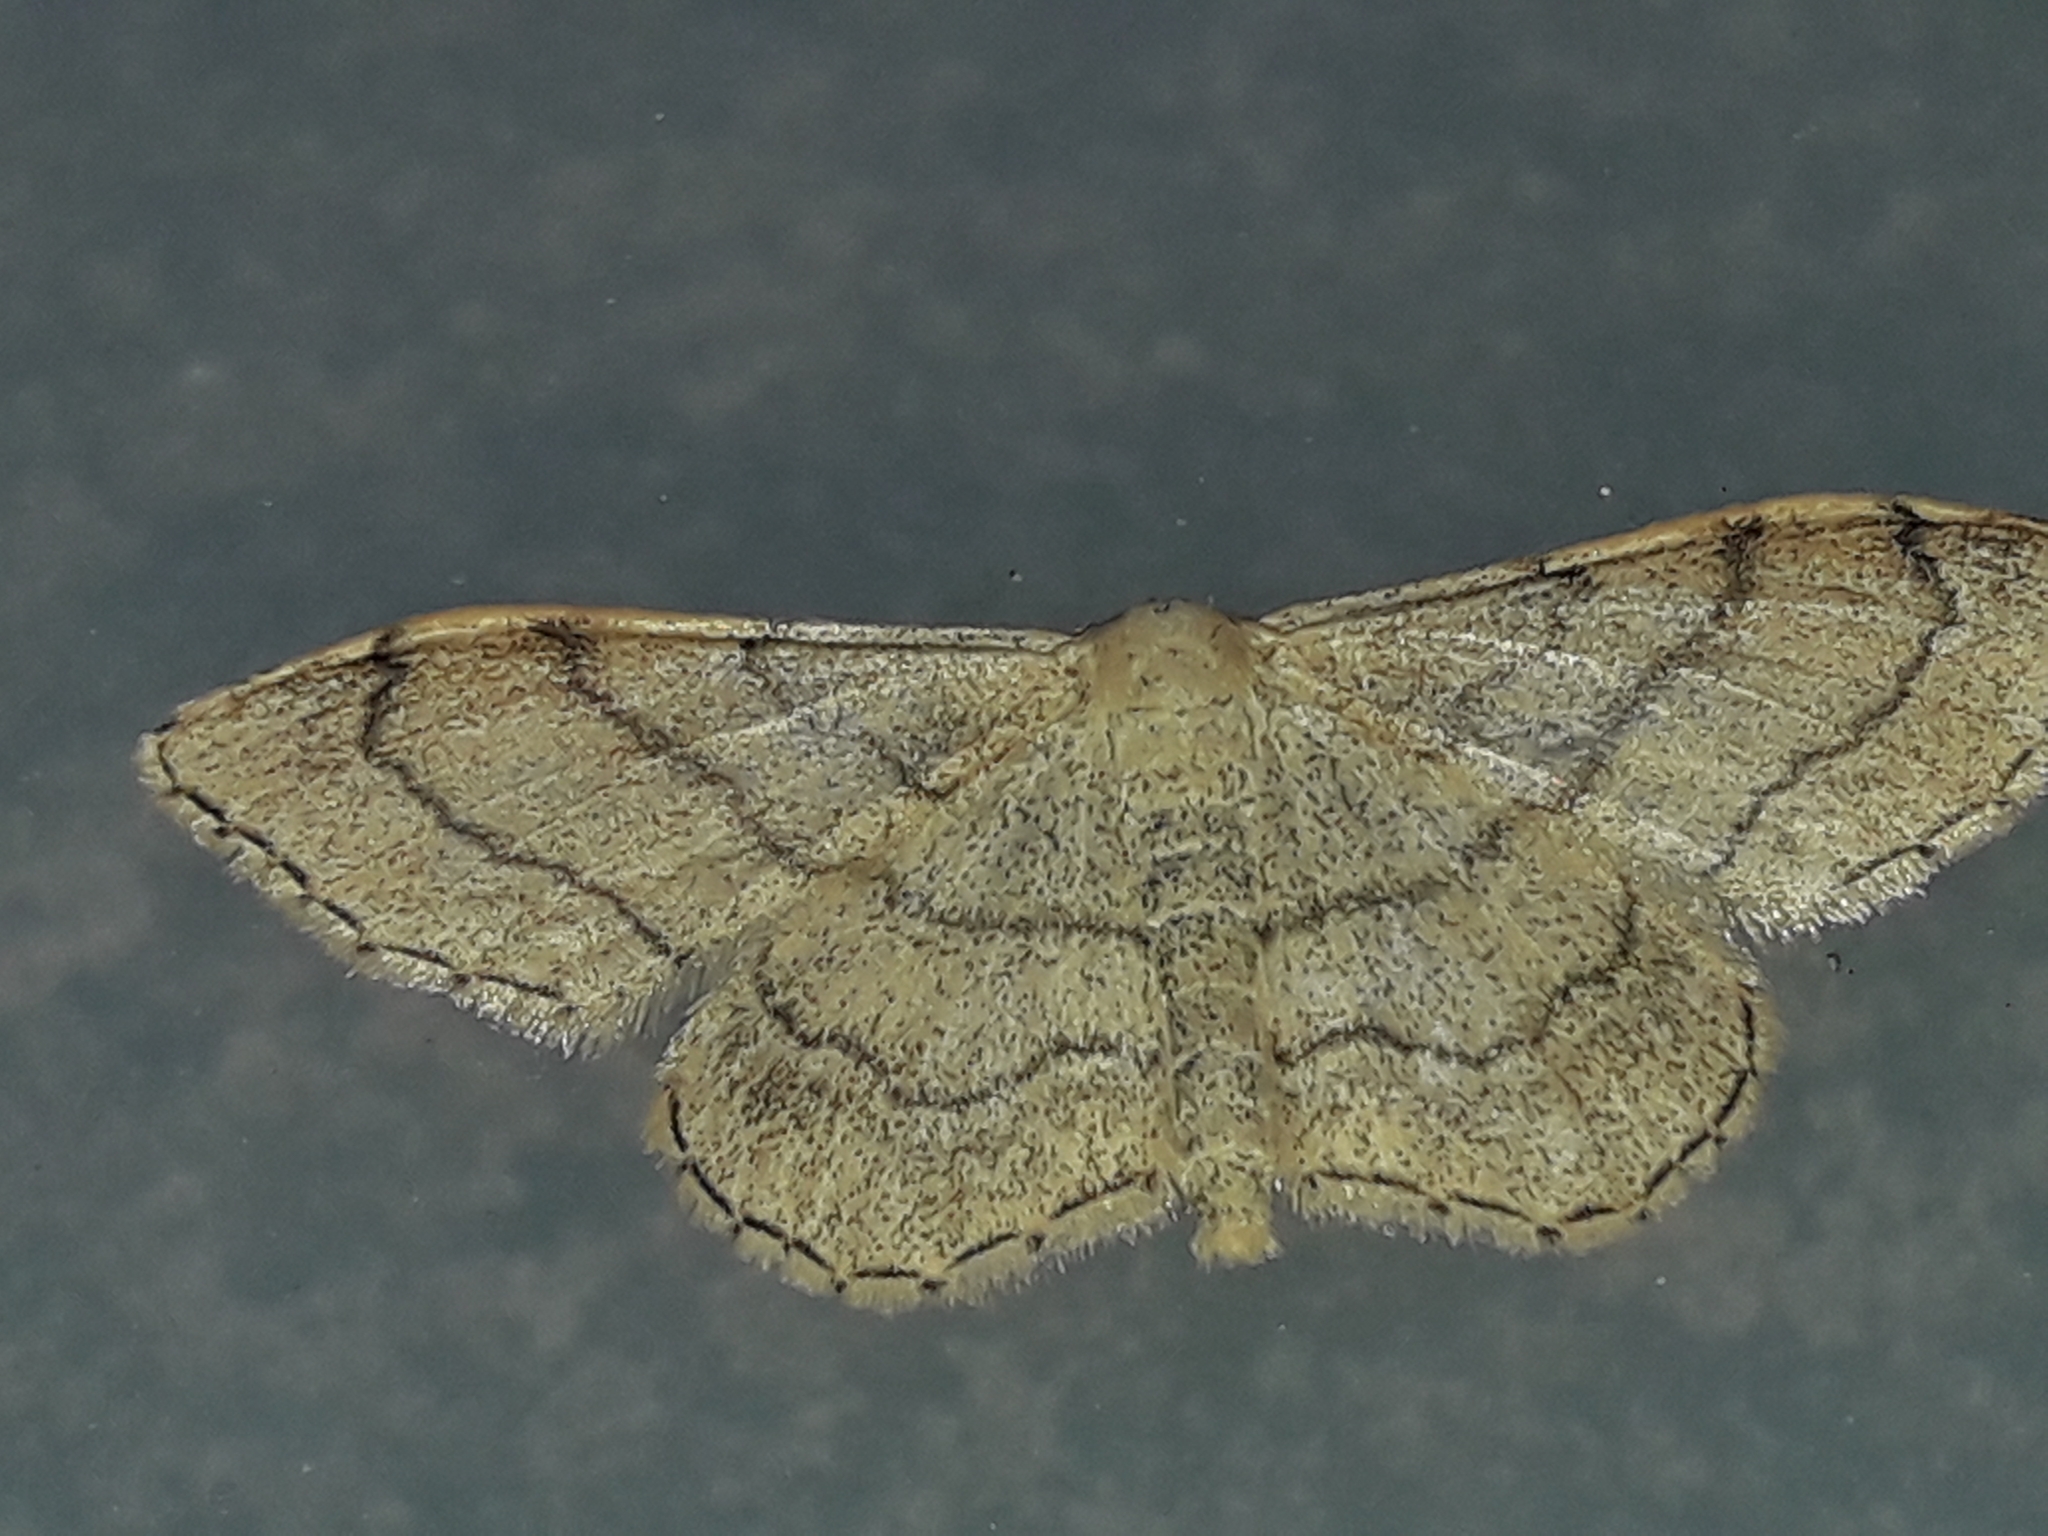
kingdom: Animalia
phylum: Arthropoda
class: Insecta
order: Lepidoptera
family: Geometridae
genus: Idaea
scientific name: Idaea aversata
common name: Riband wave
